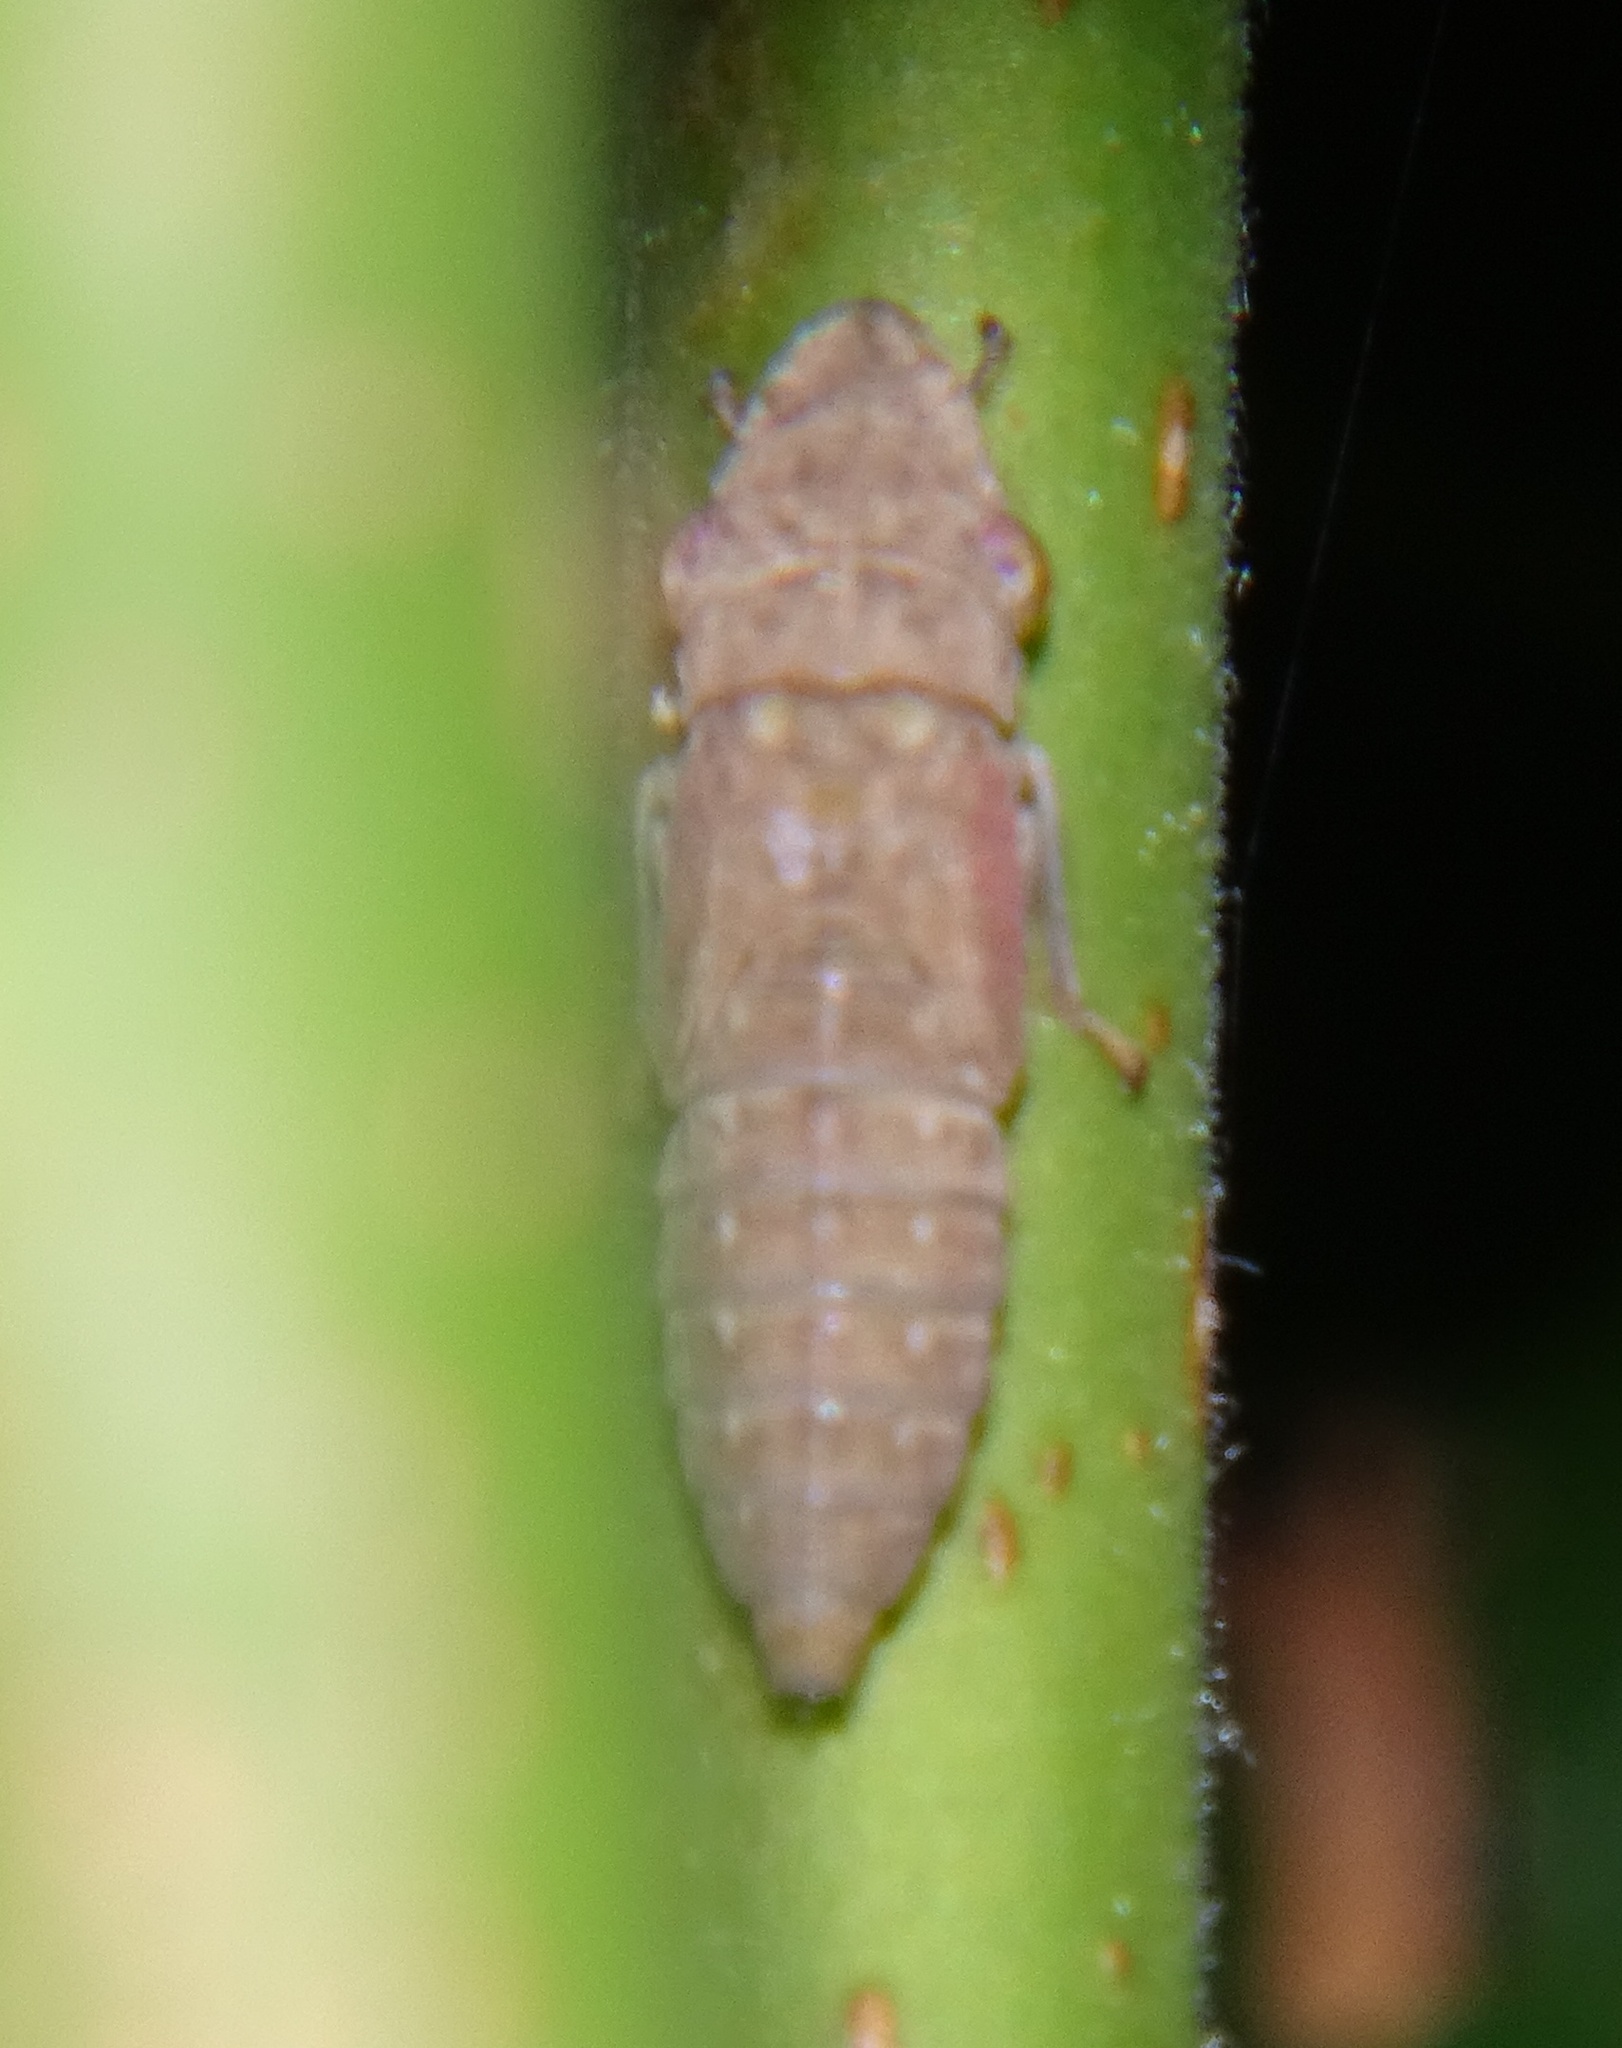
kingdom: Animalia
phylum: Arthropoda
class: Insecta
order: Hemiptera
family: Cicadellidae
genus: Homalodisca
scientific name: Homalodisca
